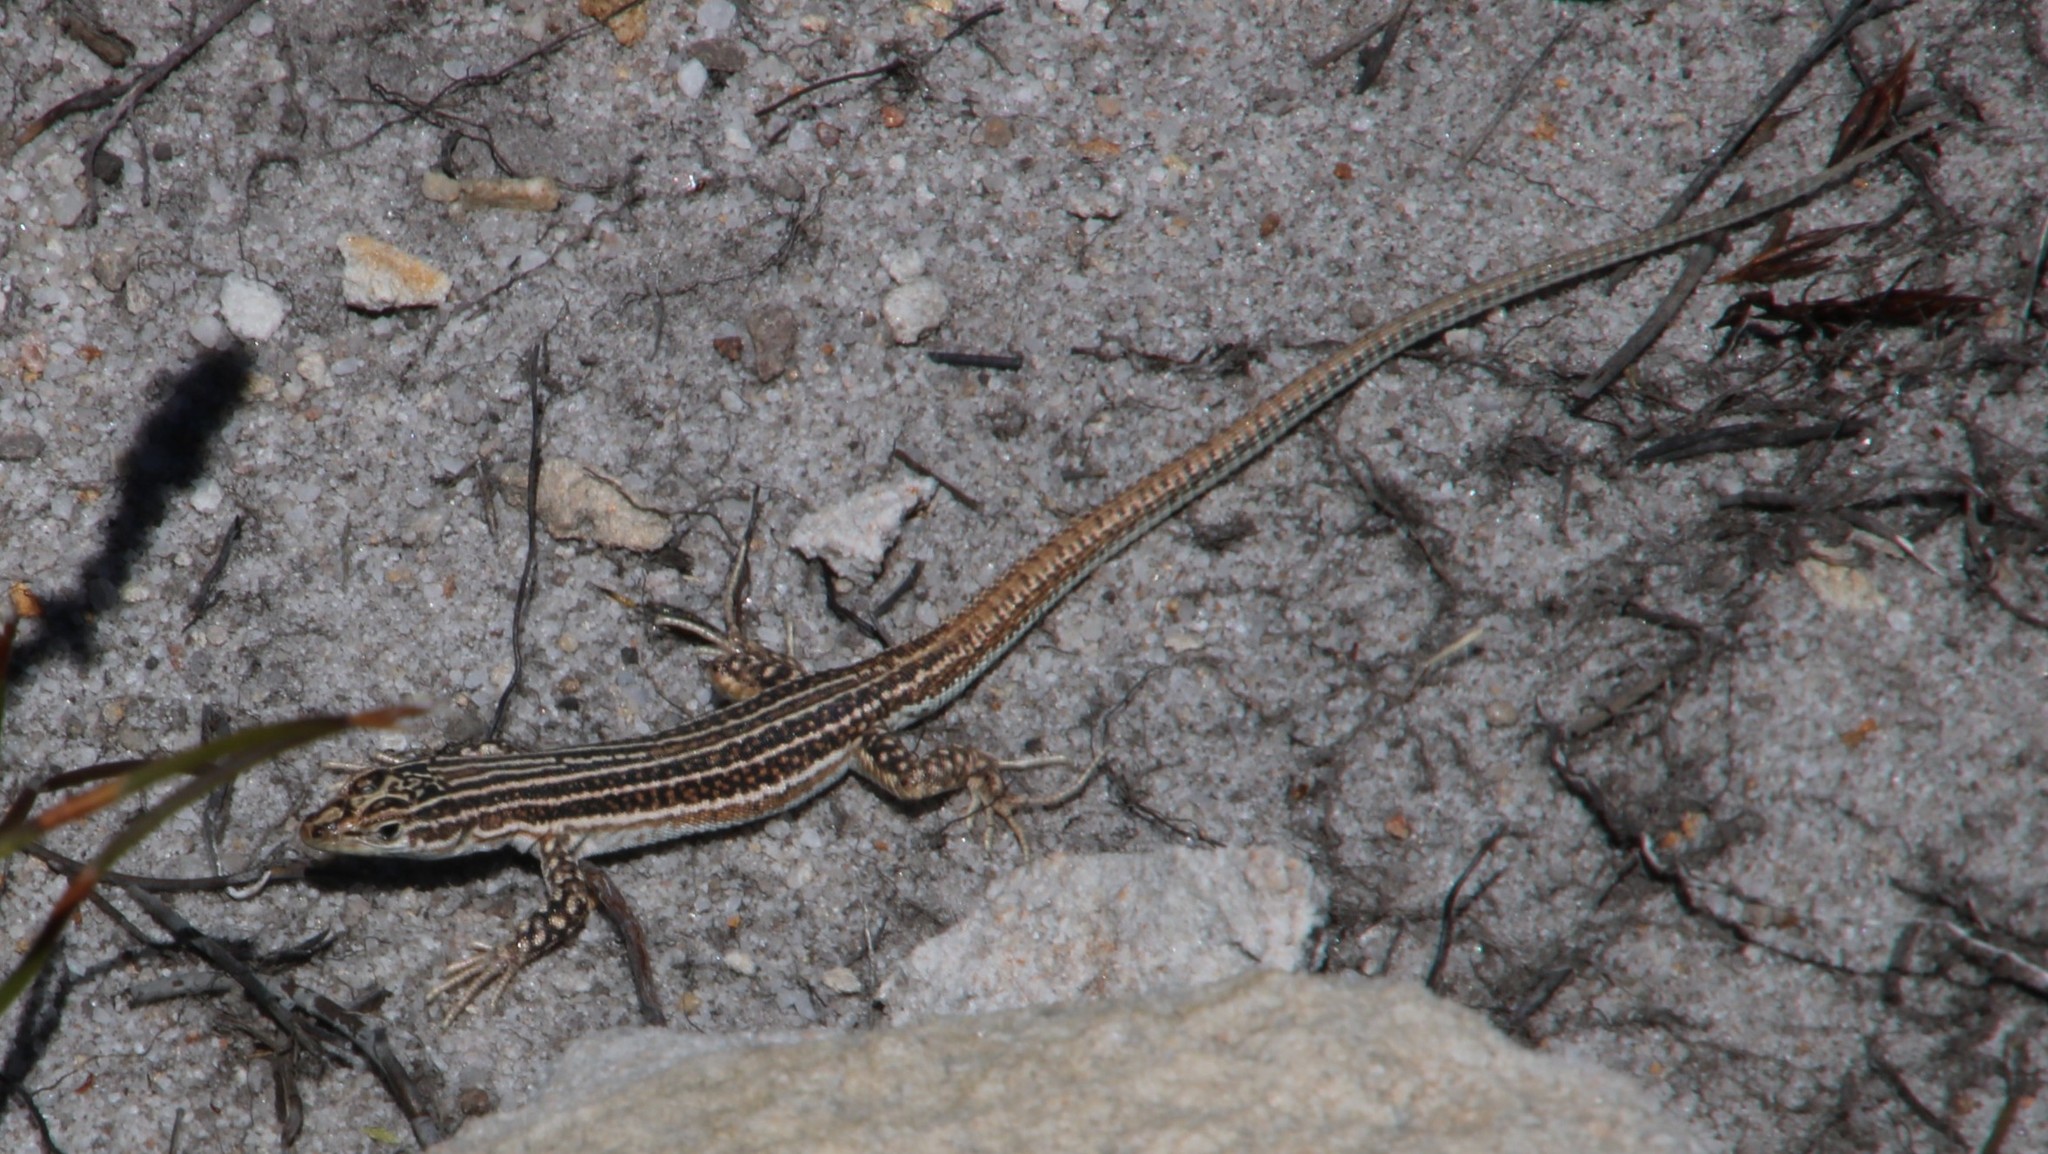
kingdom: Animalia
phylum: Chordata
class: Squamata
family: Lacertidae
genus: Pedioplanis
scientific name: Pedioplanis burchelli
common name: Burchell's sand lizard
